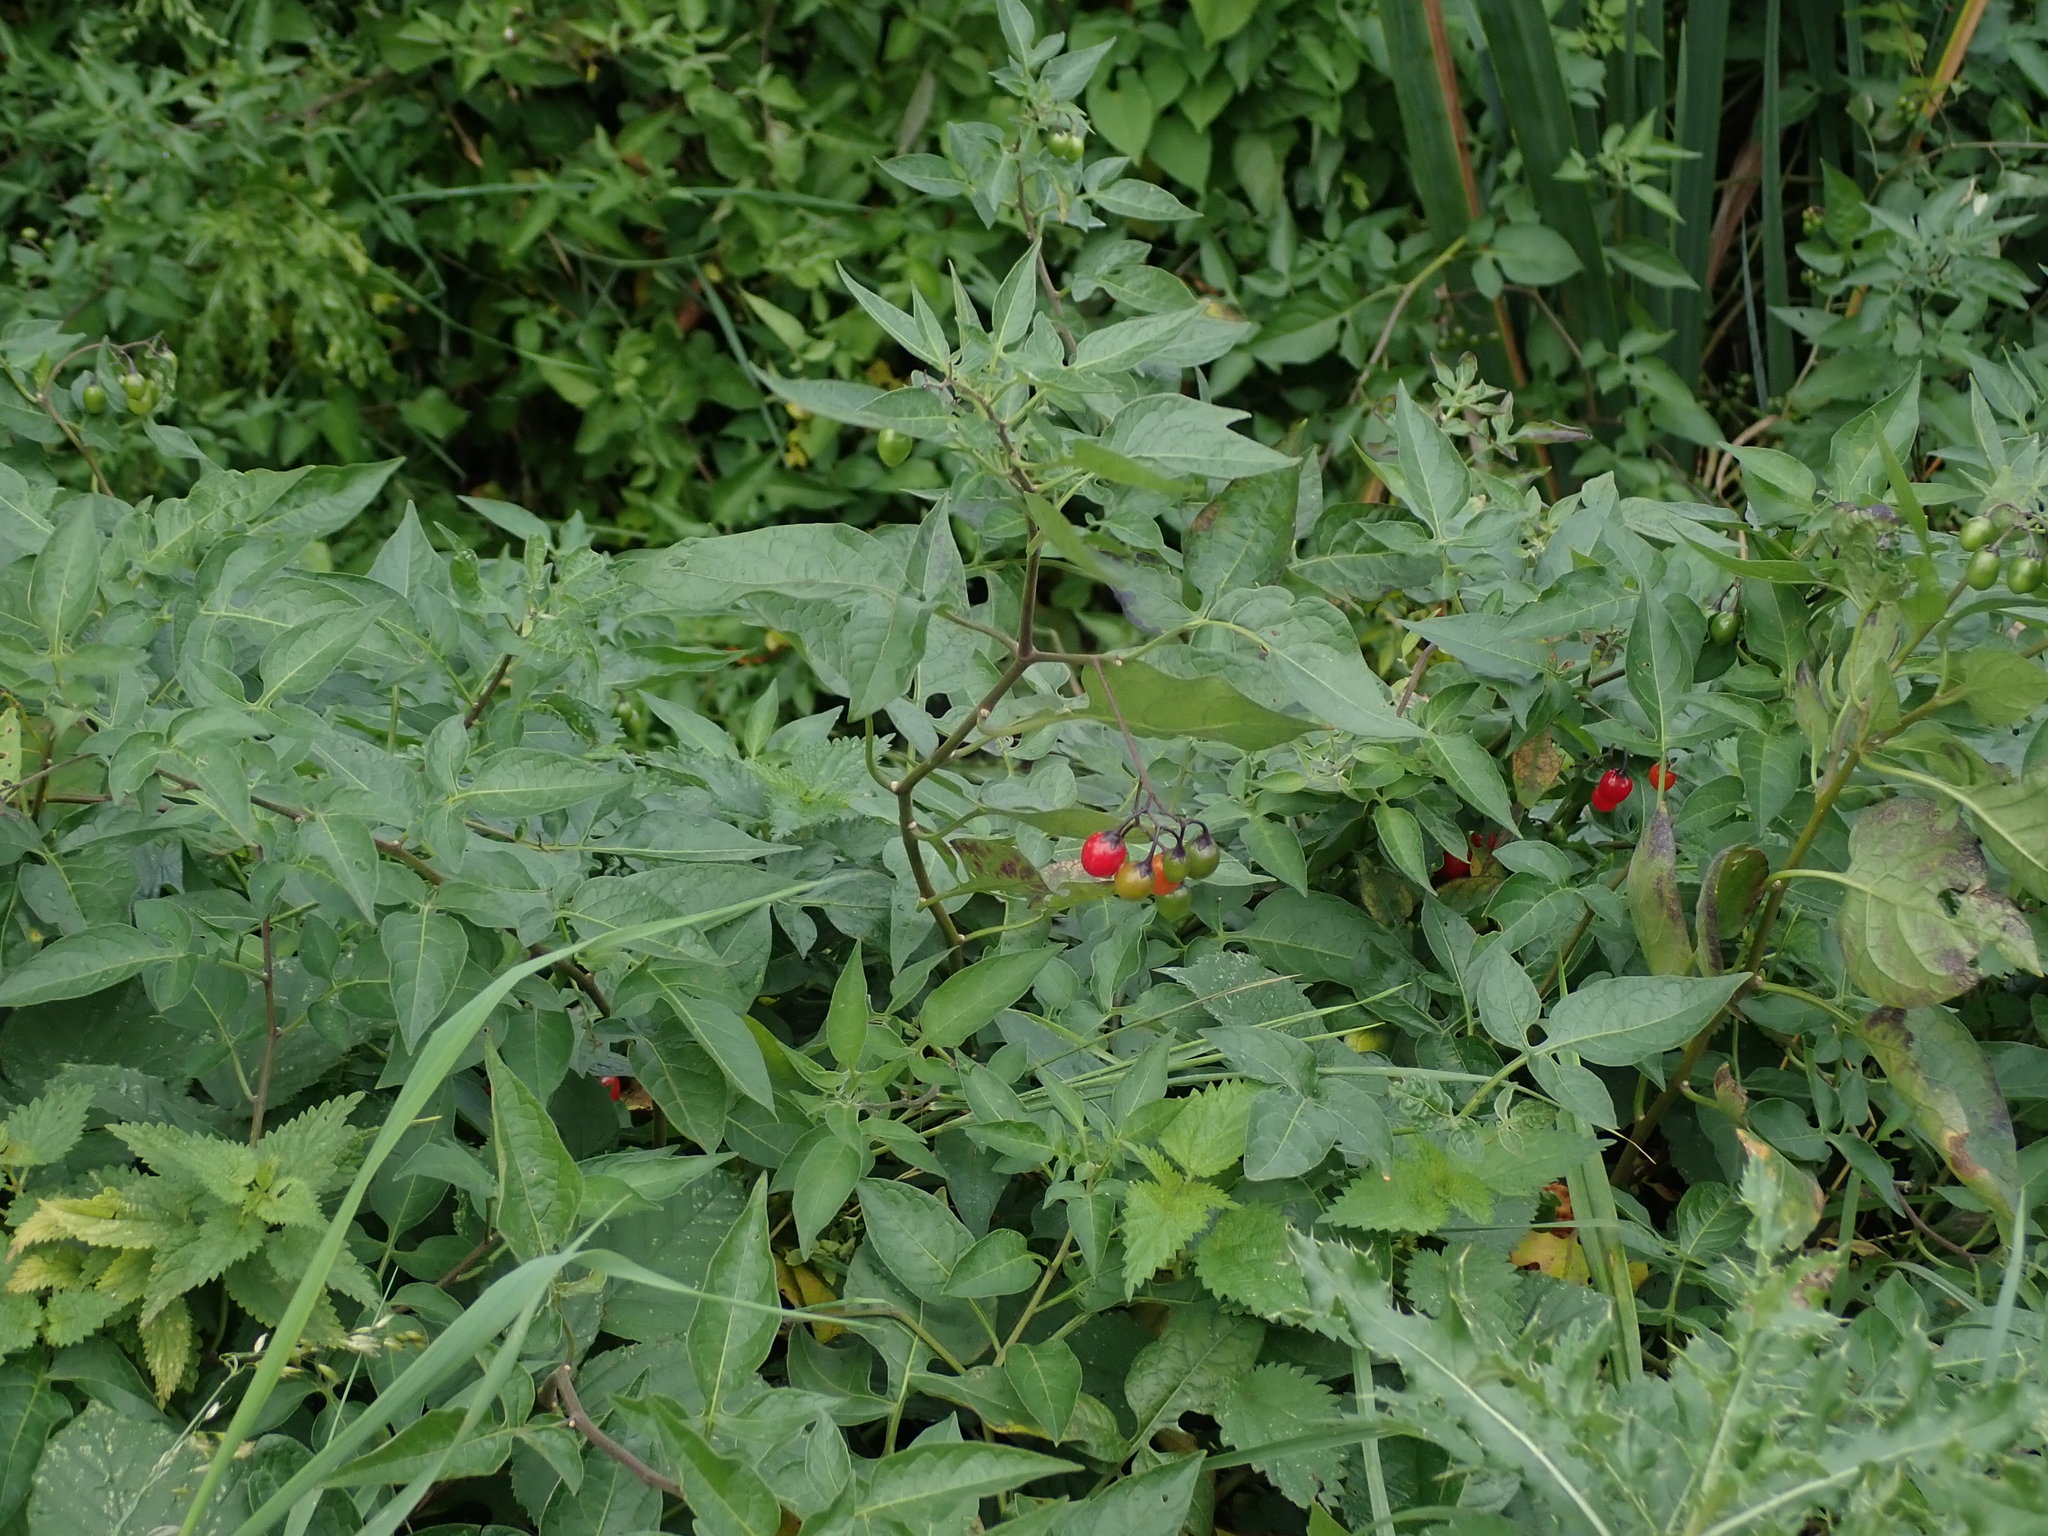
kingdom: Plantae
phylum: Tracheophyta
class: Magnoliopsida
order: Solanales
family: Solanaceae
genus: Solanum
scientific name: Solanum dulcamara
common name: Climbing nightshade
